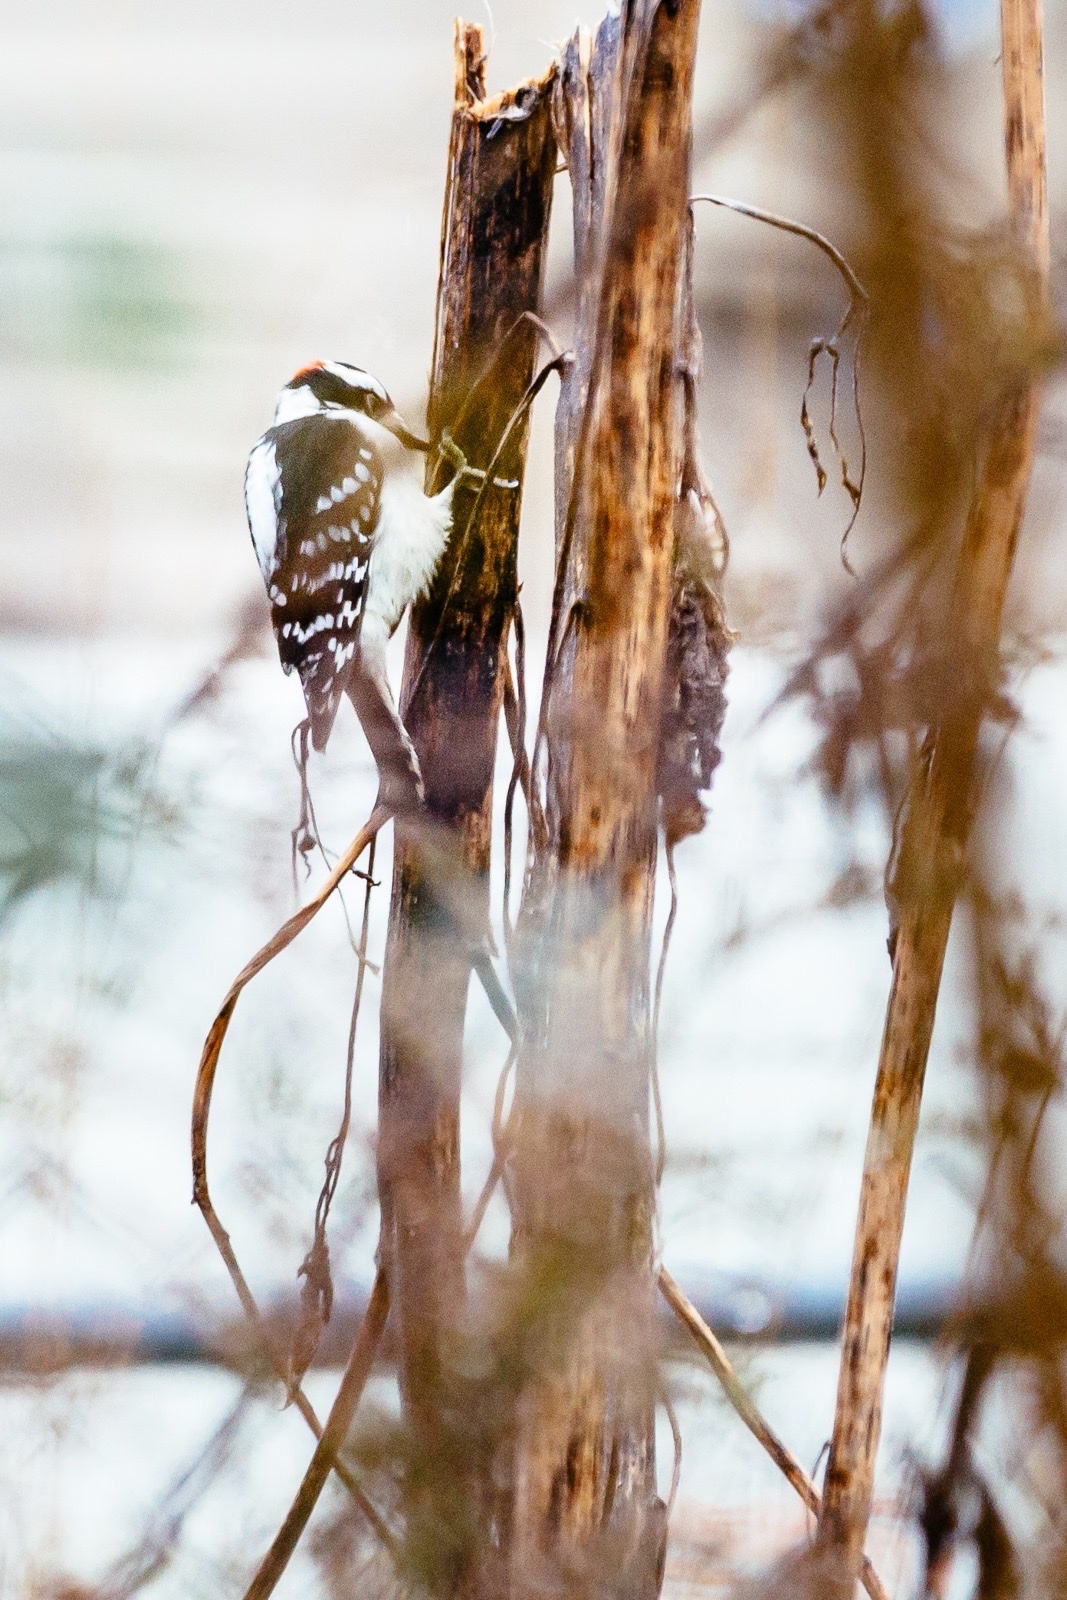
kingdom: Animalia
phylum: Chordata
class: Aves
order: Piciformes
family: Picidae
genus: Dryobates
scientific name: Dryobates pubescens
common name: Downy woodpecker
